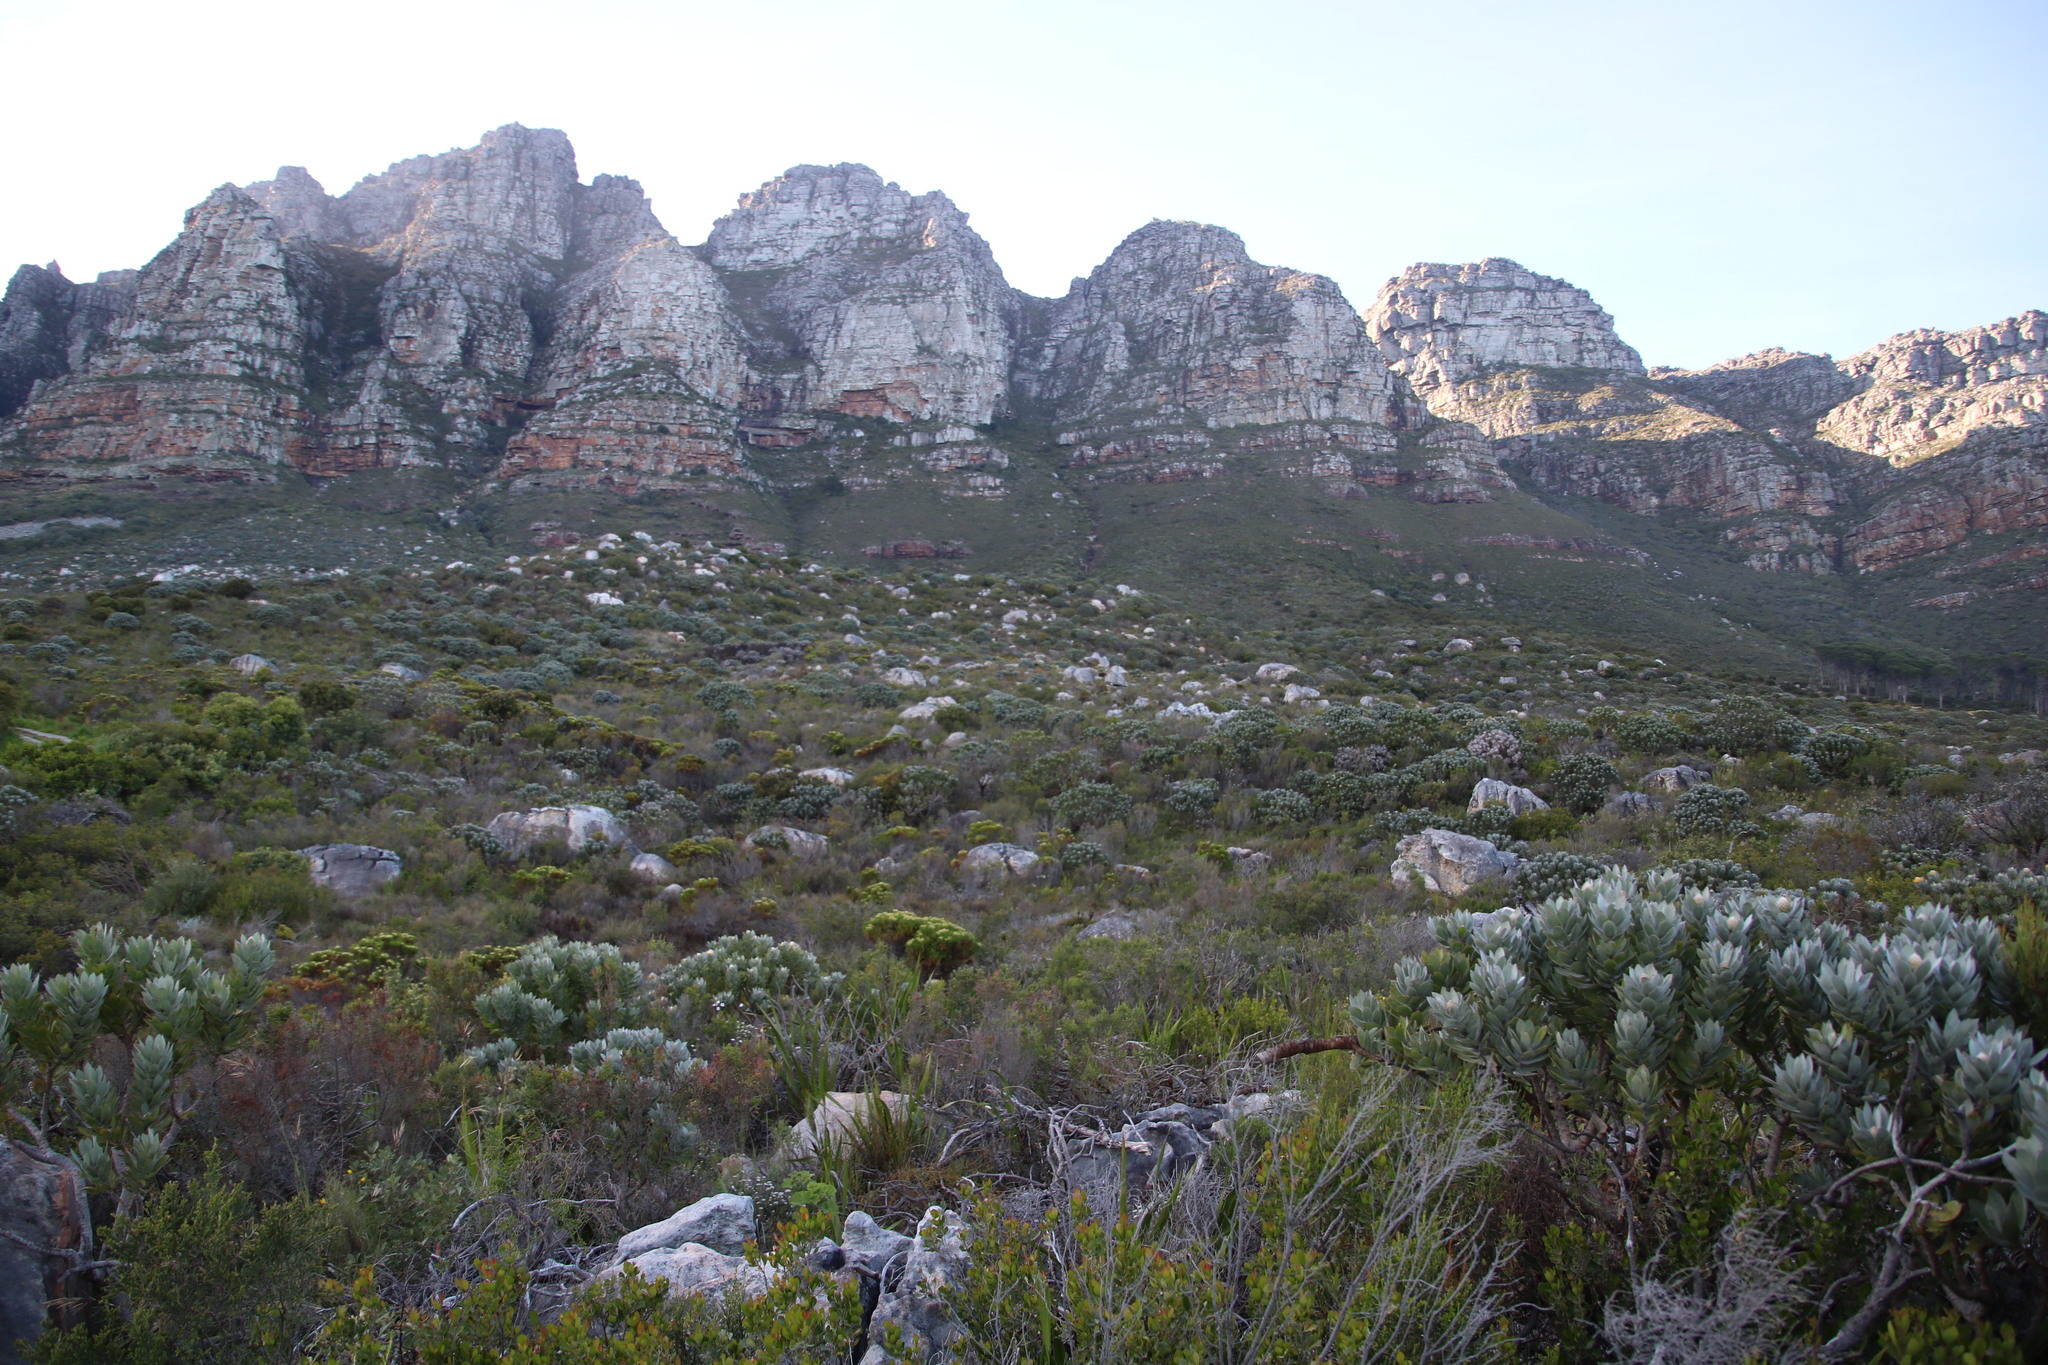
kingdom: Plantae
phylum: Tracheophyta
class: Magnoliopsida
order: Proteales
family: Proteaceae
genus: Leucospermum
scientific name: Leucospermum conocarpodendron
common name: Tree pincushion
